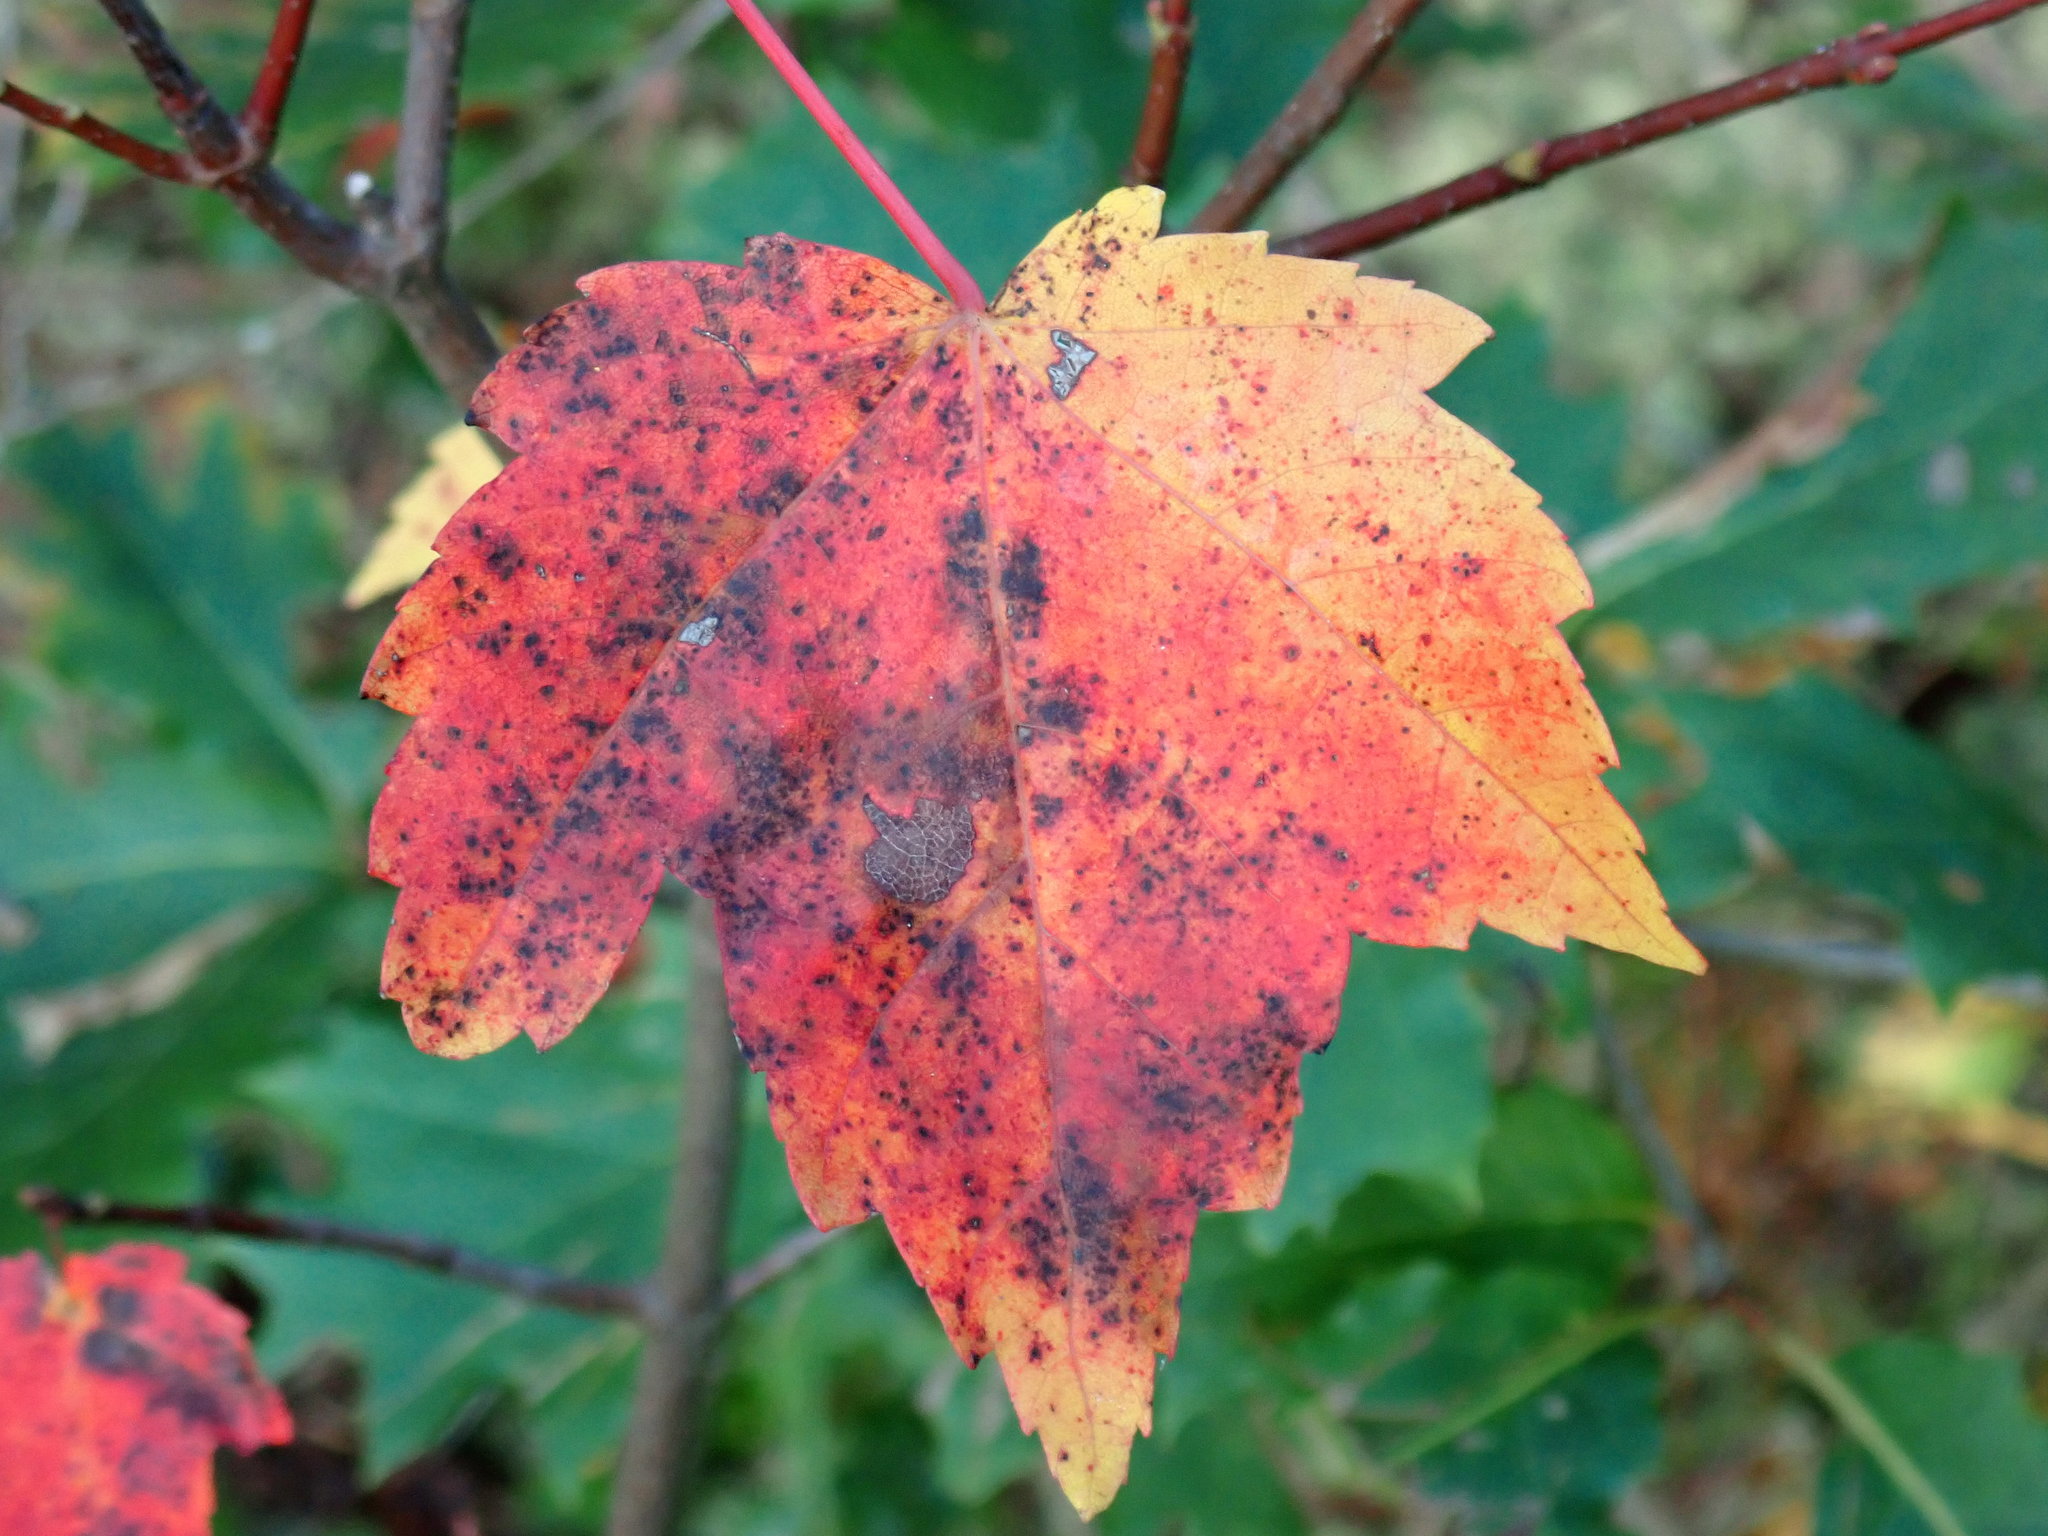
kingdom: Plantae
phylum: Tracheophyta
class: Magnoliopsida
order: Sapindales
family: Sapindaceae
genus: Acer
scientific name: Acer rubrum
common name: Red maple
